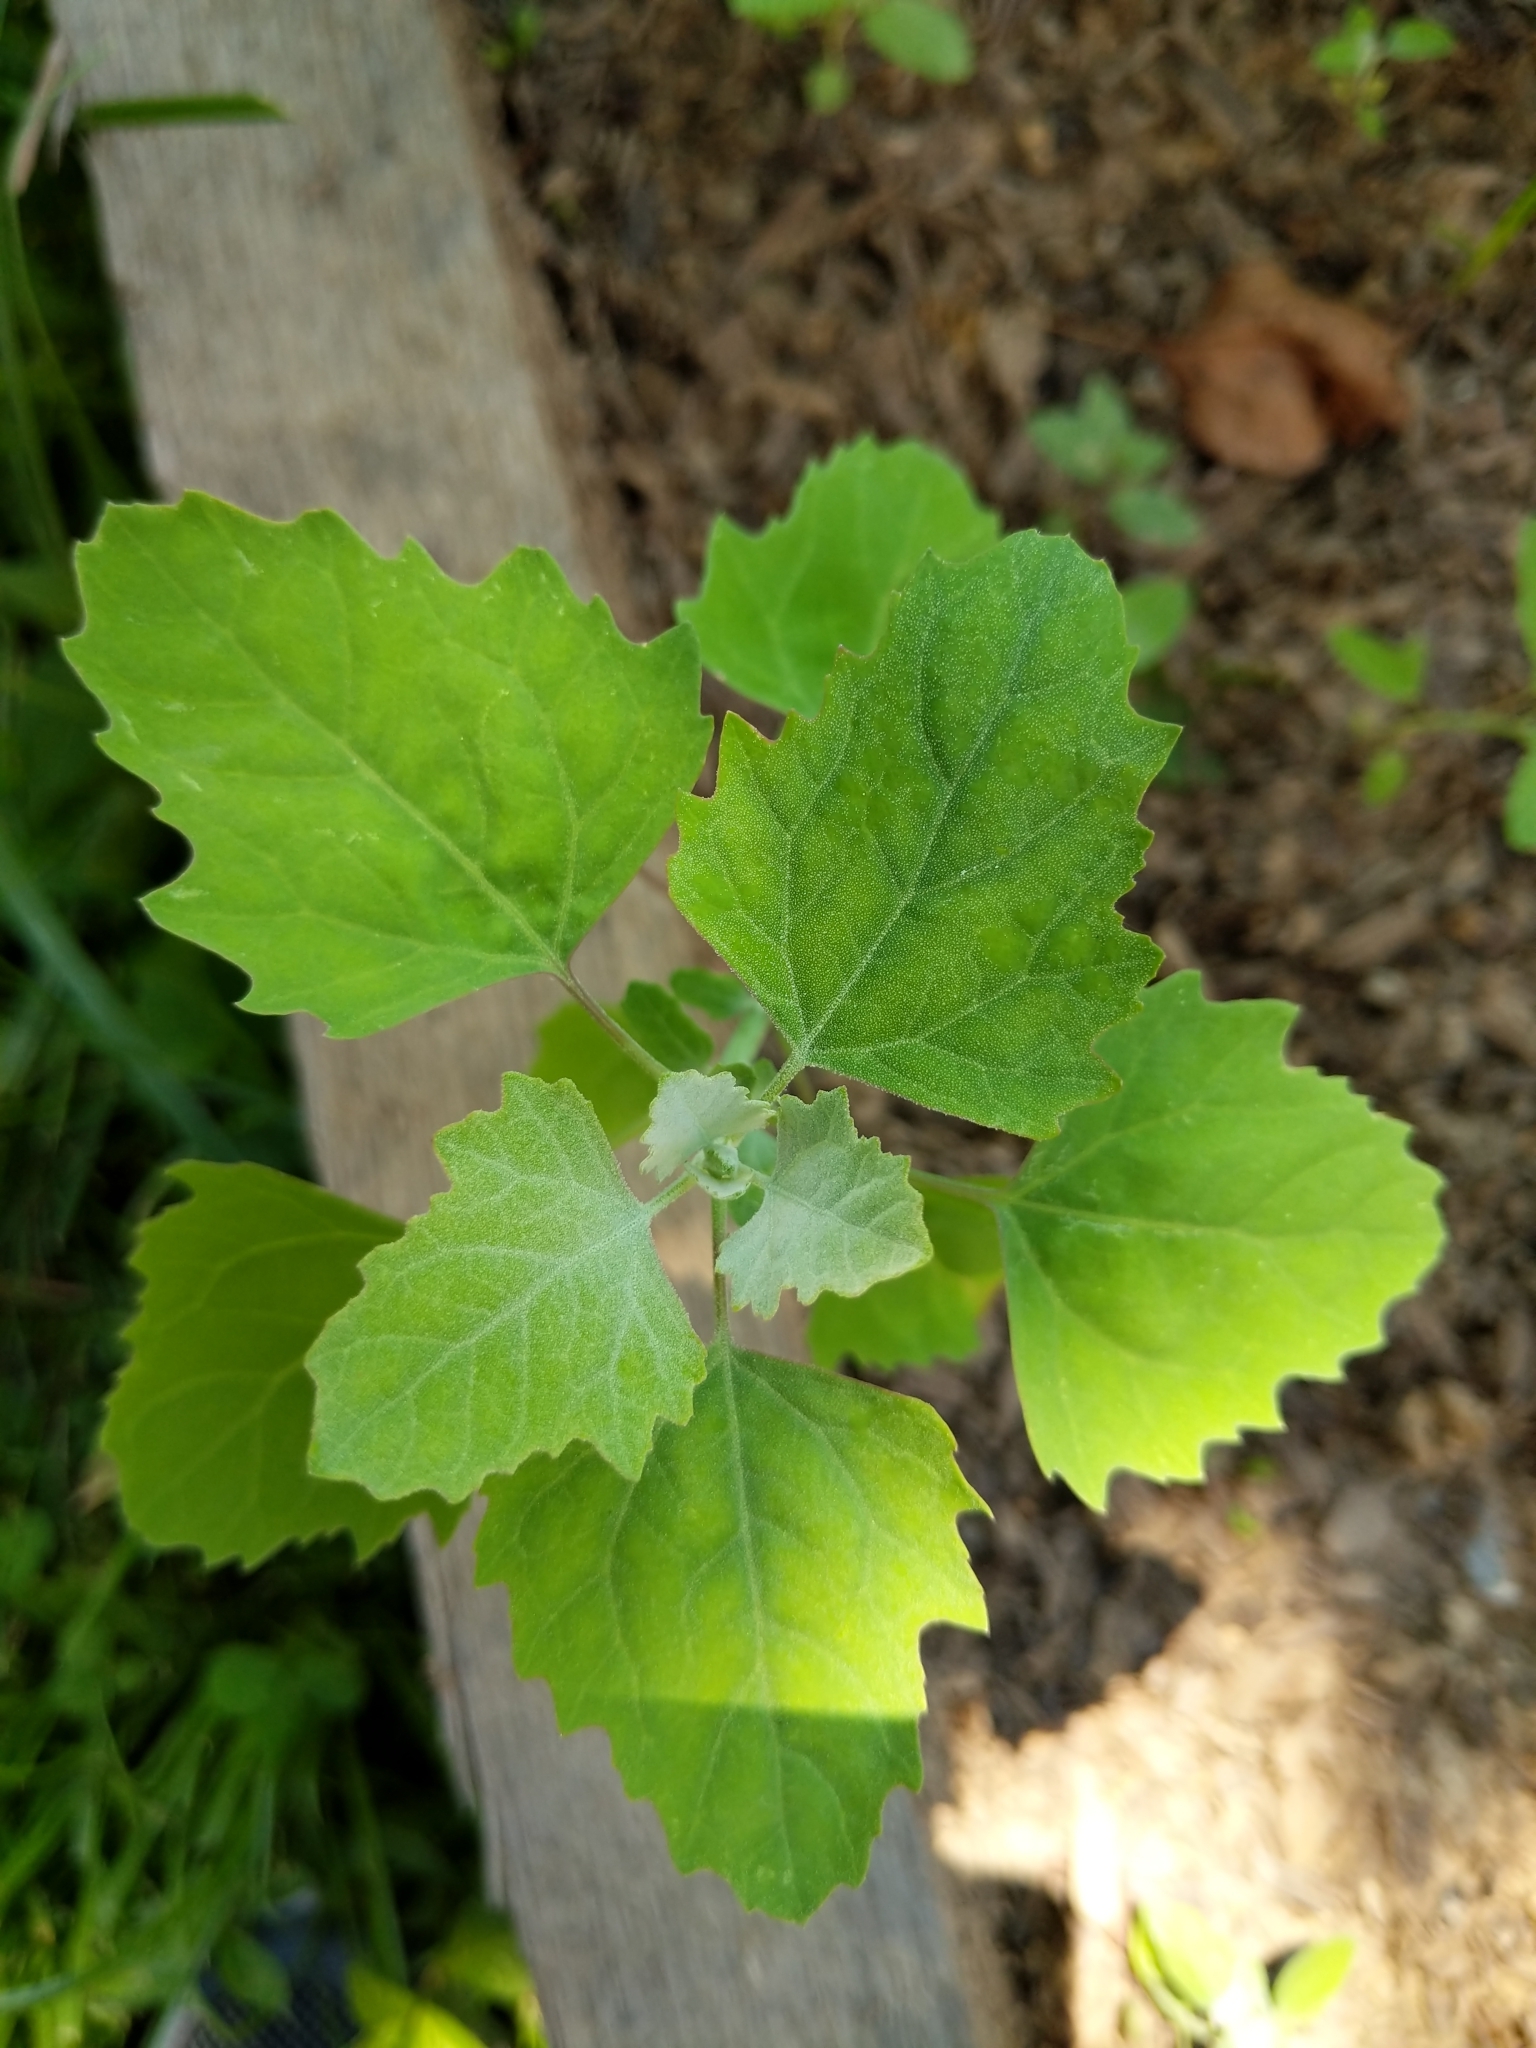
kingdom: Plantae
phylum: Tracheophyta
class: Magnoliopsida
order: Caryophyllales
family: Amaranthaceae
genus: Chenopodium
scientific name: Chenopodium album
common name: Fat-hen
